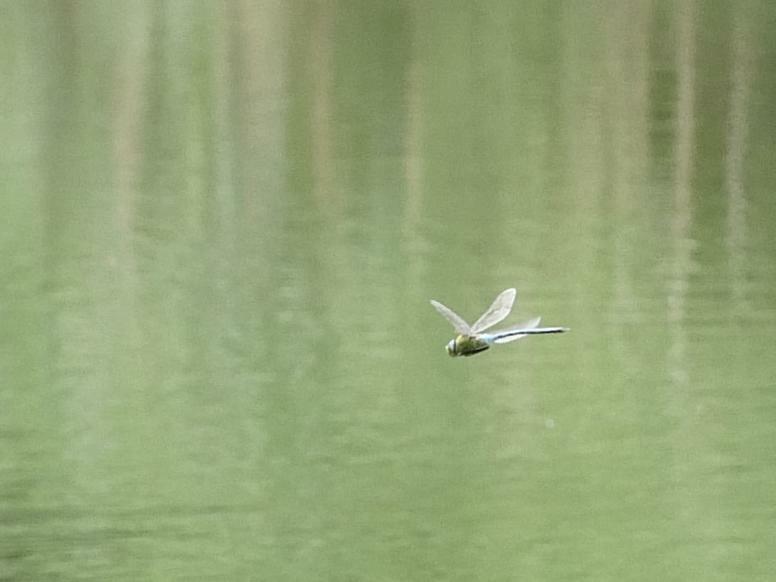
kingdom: Animalia
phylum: Arthropoda
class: Insecta
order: Odonata
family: Aeshnidae
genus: Anax
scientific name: Anax imperator
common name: Emperor dragonfly
